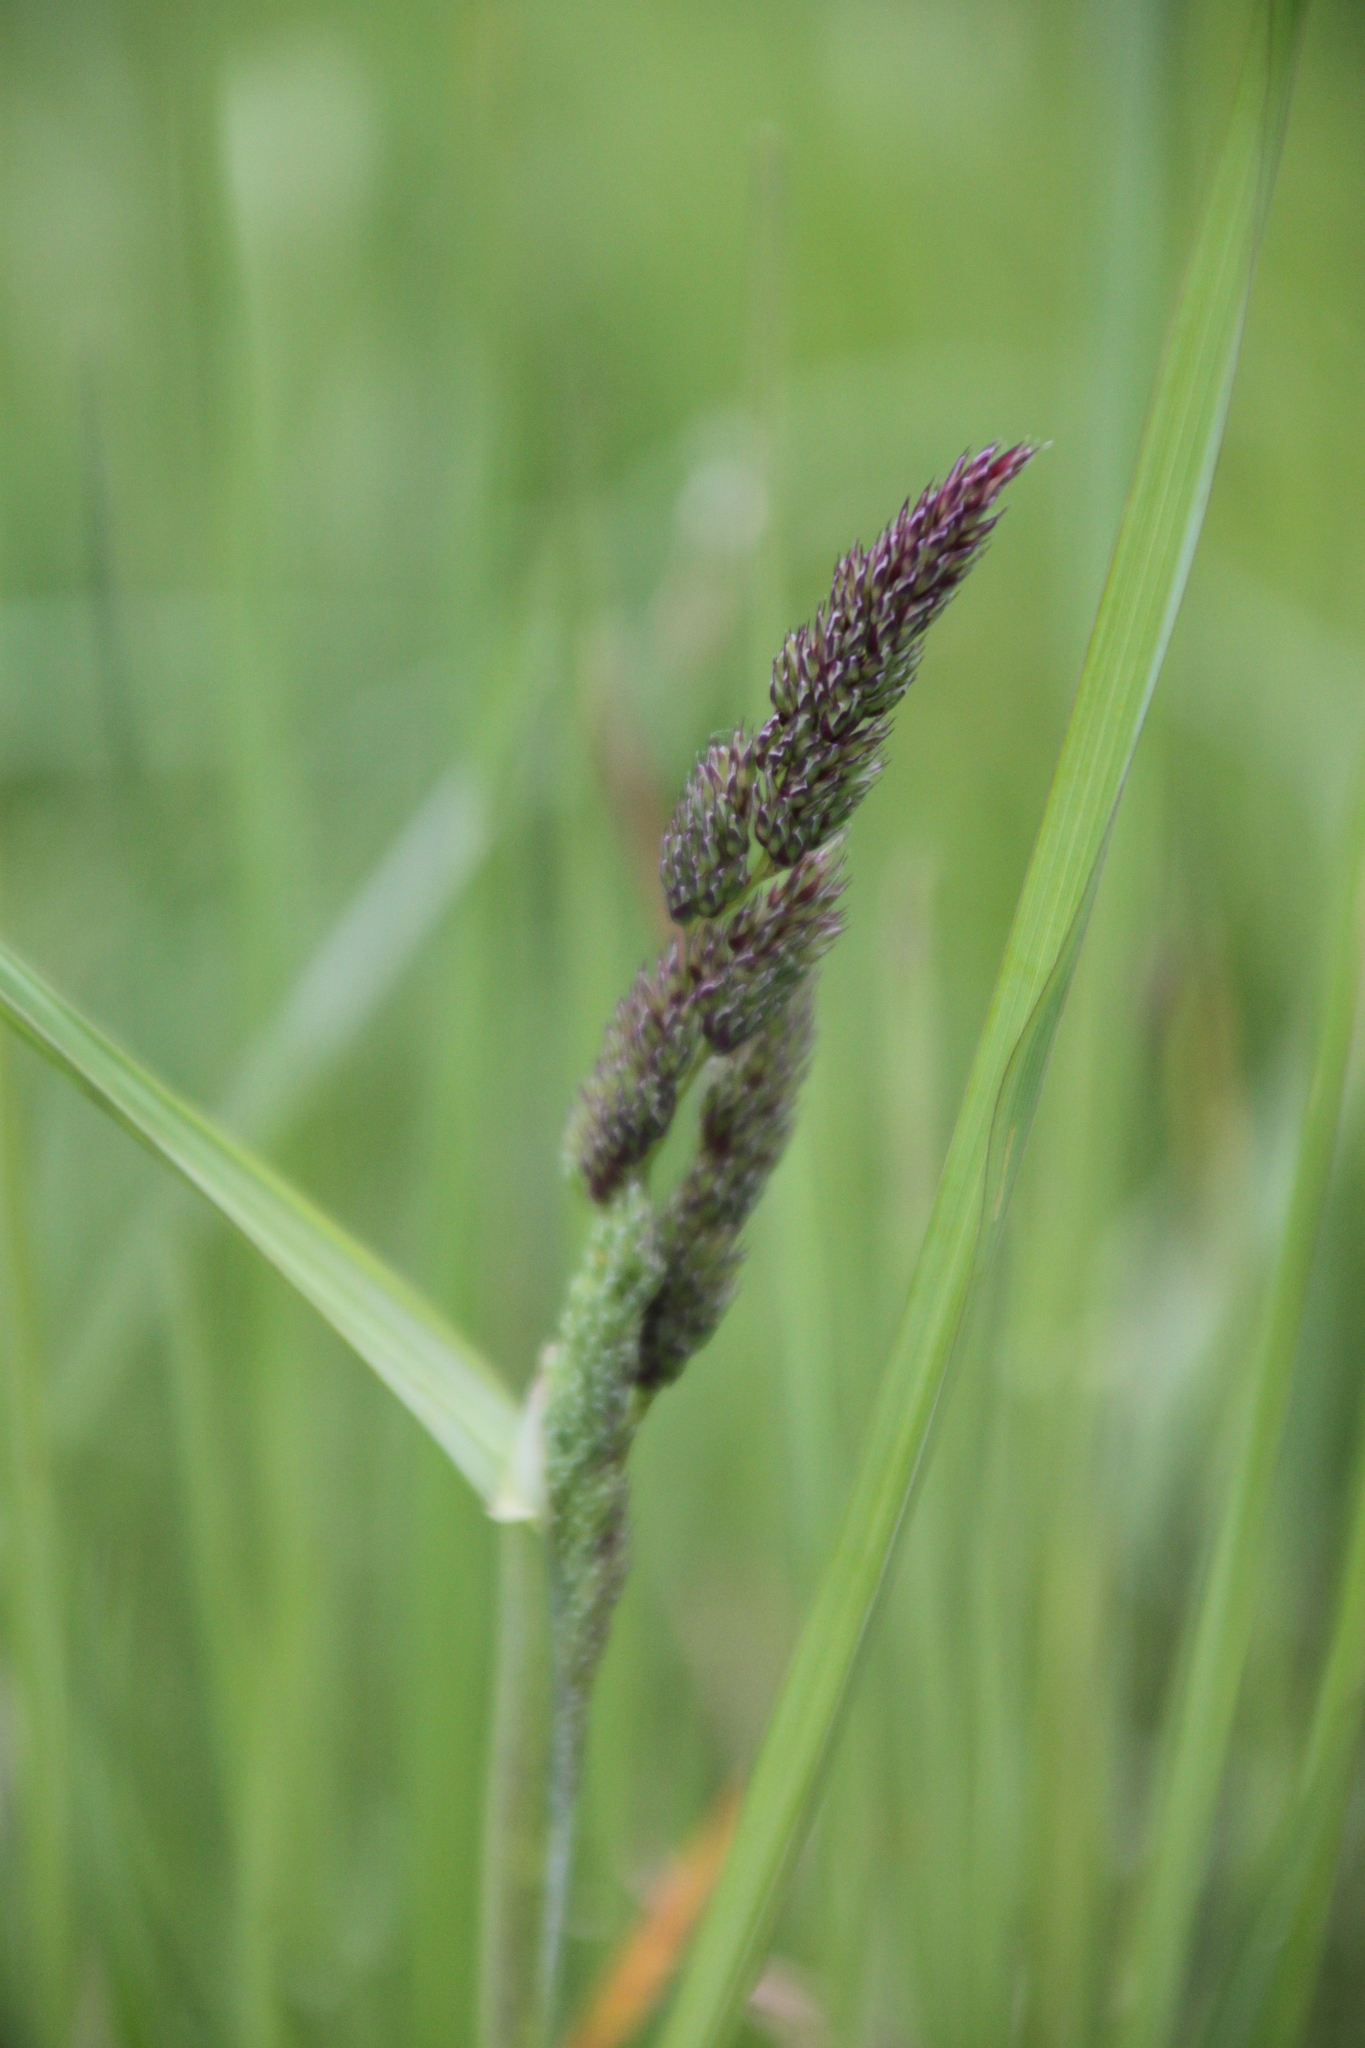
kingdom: Plantae
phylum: Tracheophyta
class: Liliopsida
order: Poales
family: Poaceae
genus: Dactylis
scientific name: Dactylis glomerata
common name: Orchardgrass
